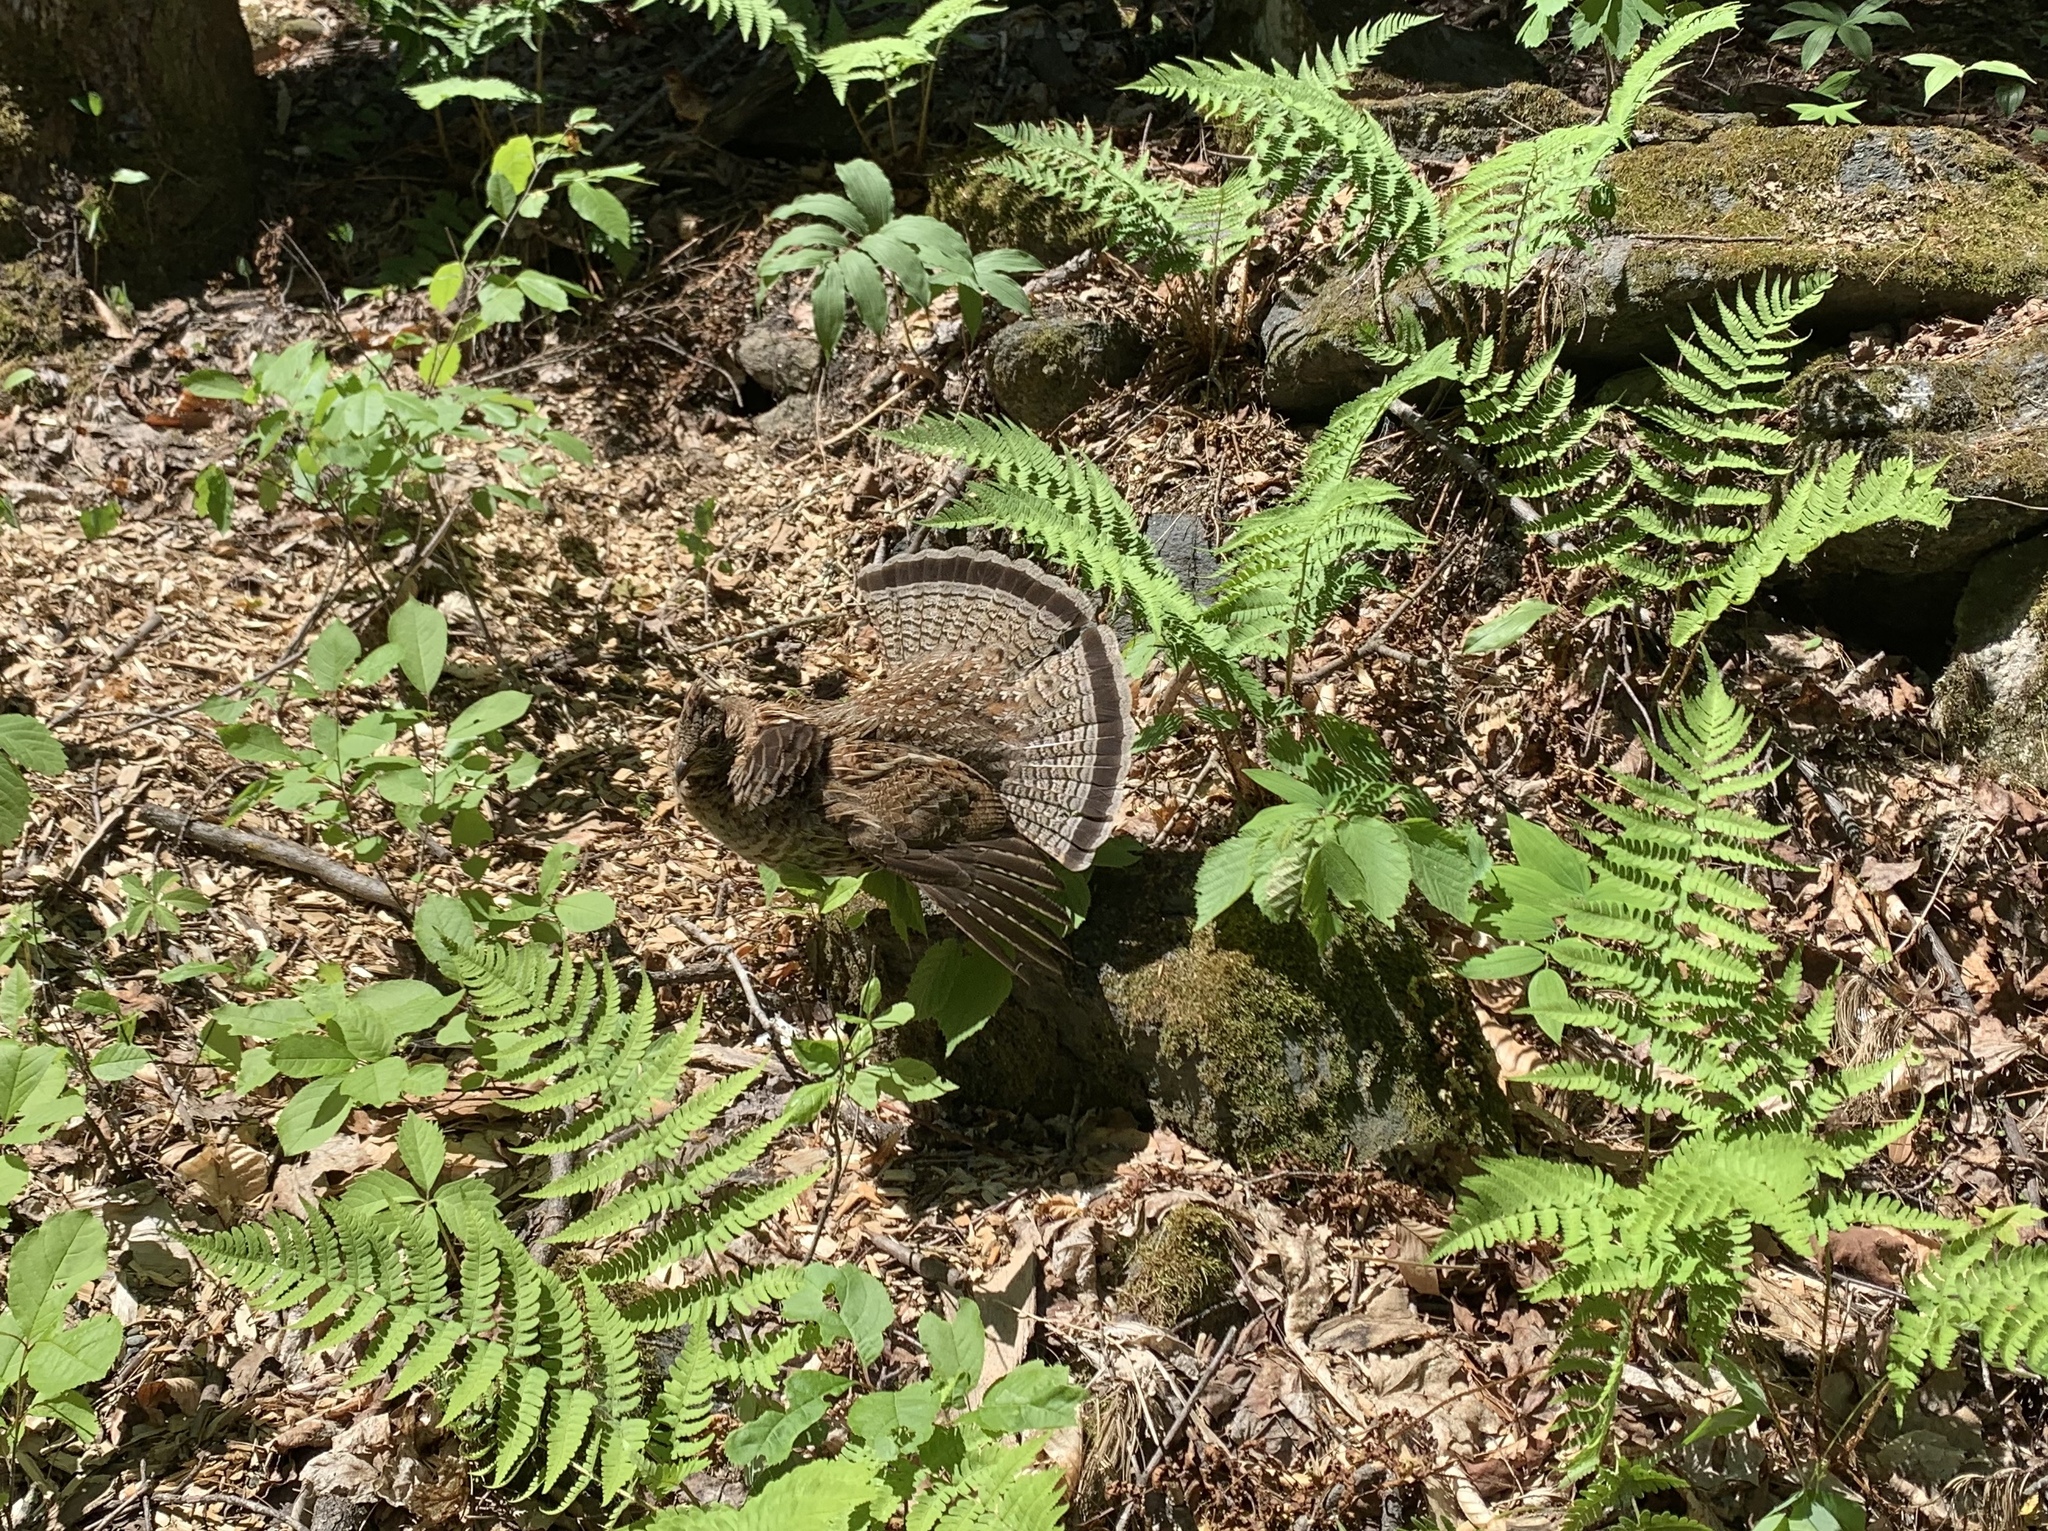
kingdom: Animalia
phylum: Chordata
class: Aves
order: Galliformes
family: Phasianidae
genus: Bonasa
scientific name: Bonasa umbellus
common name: Ruffed grouse
